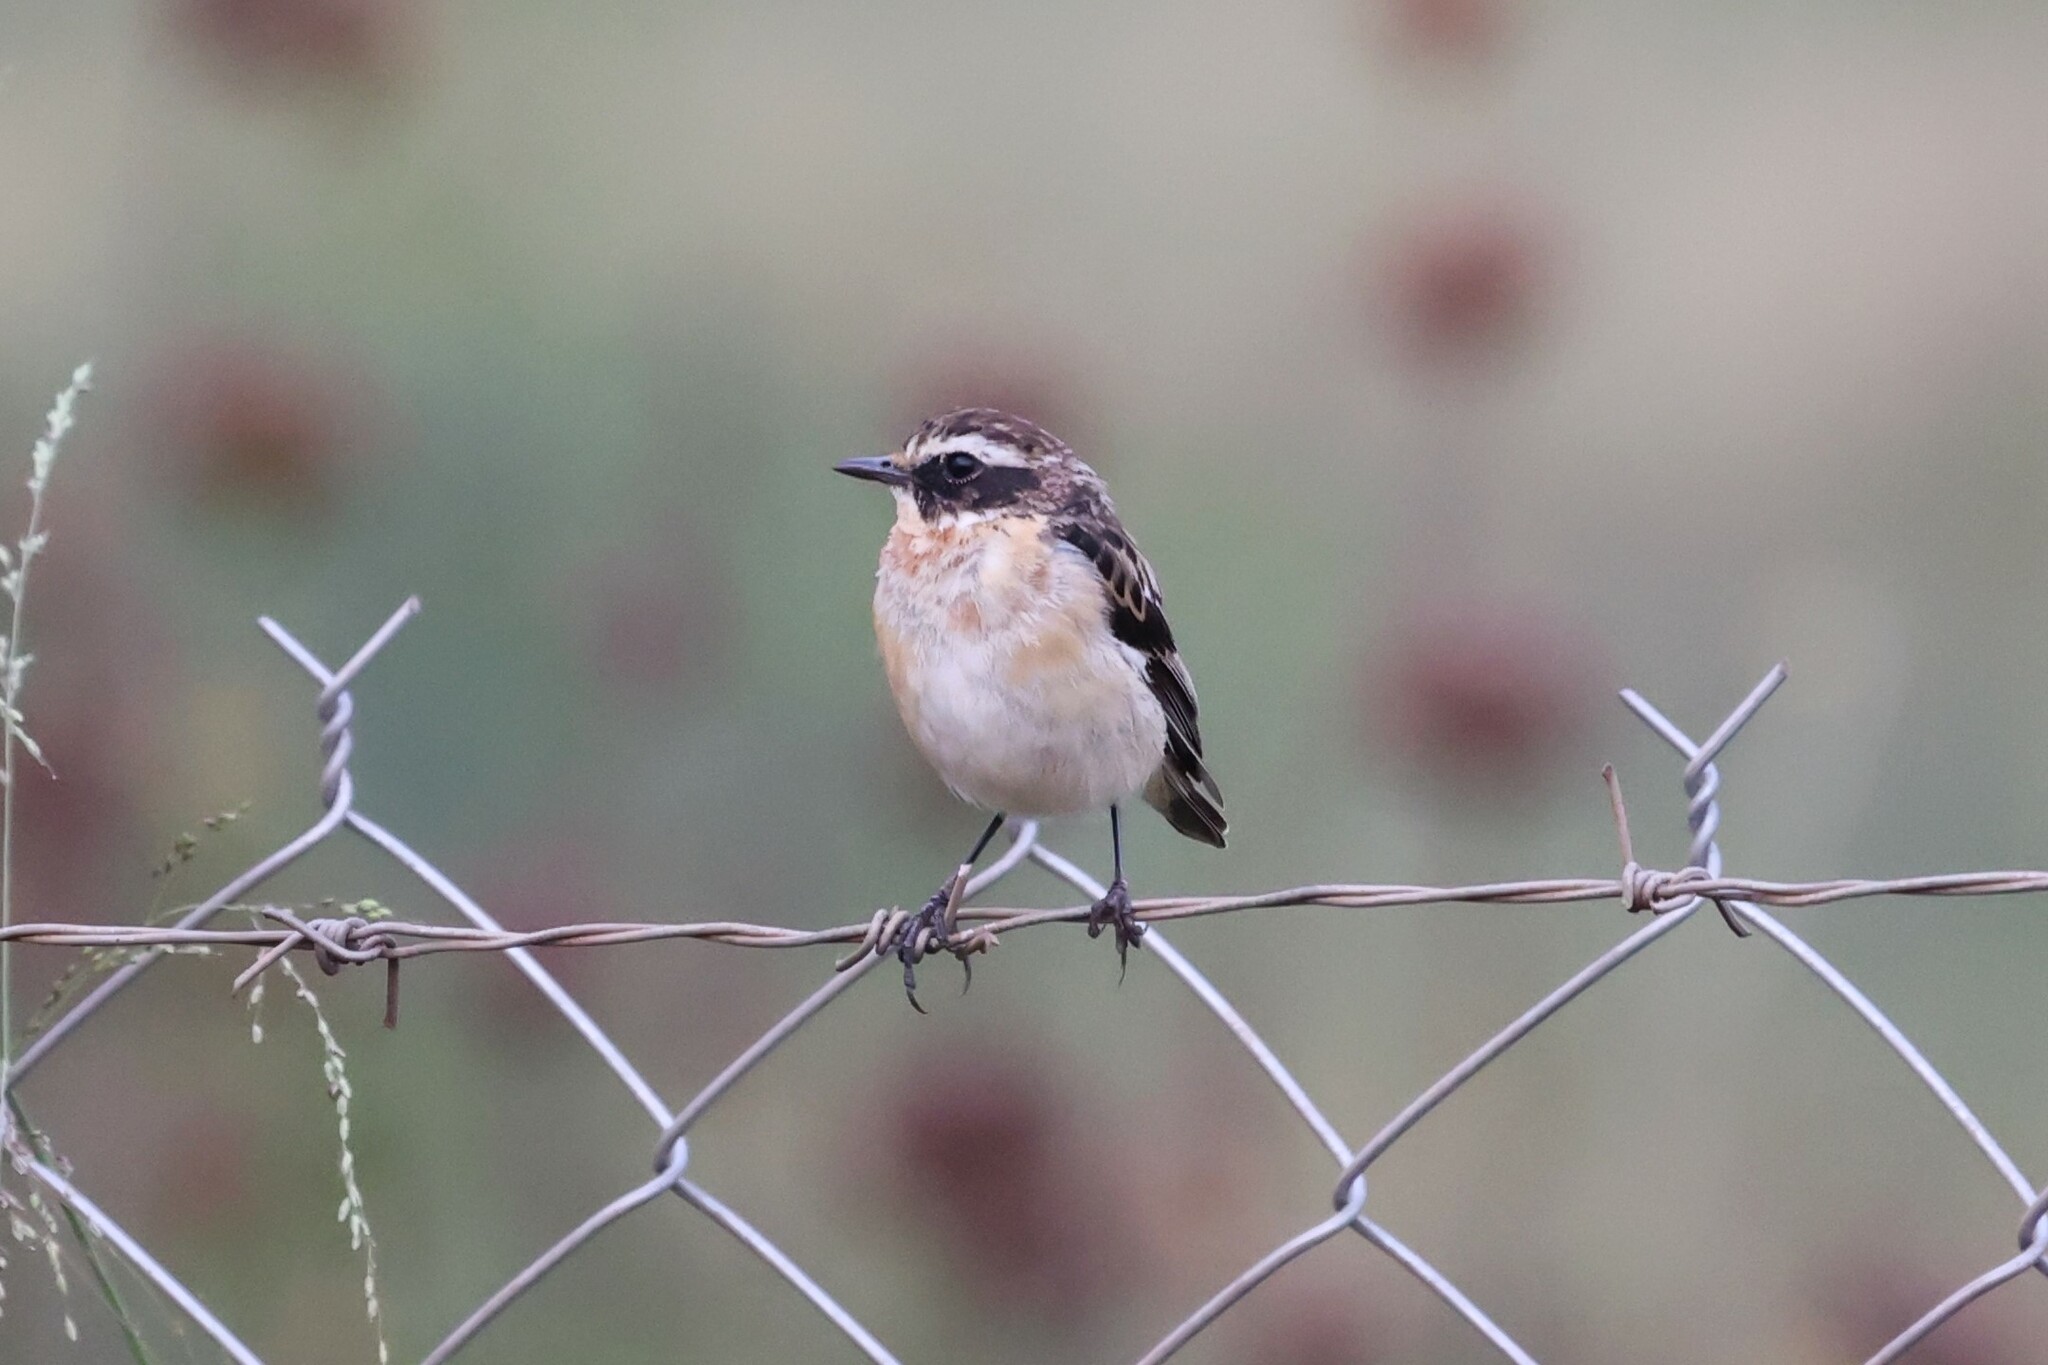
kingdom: Animalia
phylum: Chordata
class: Aves
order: Passeriformes
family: Muscicapidae
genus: Saxicola
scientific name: Saxicola rubetra
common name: Whinchat
